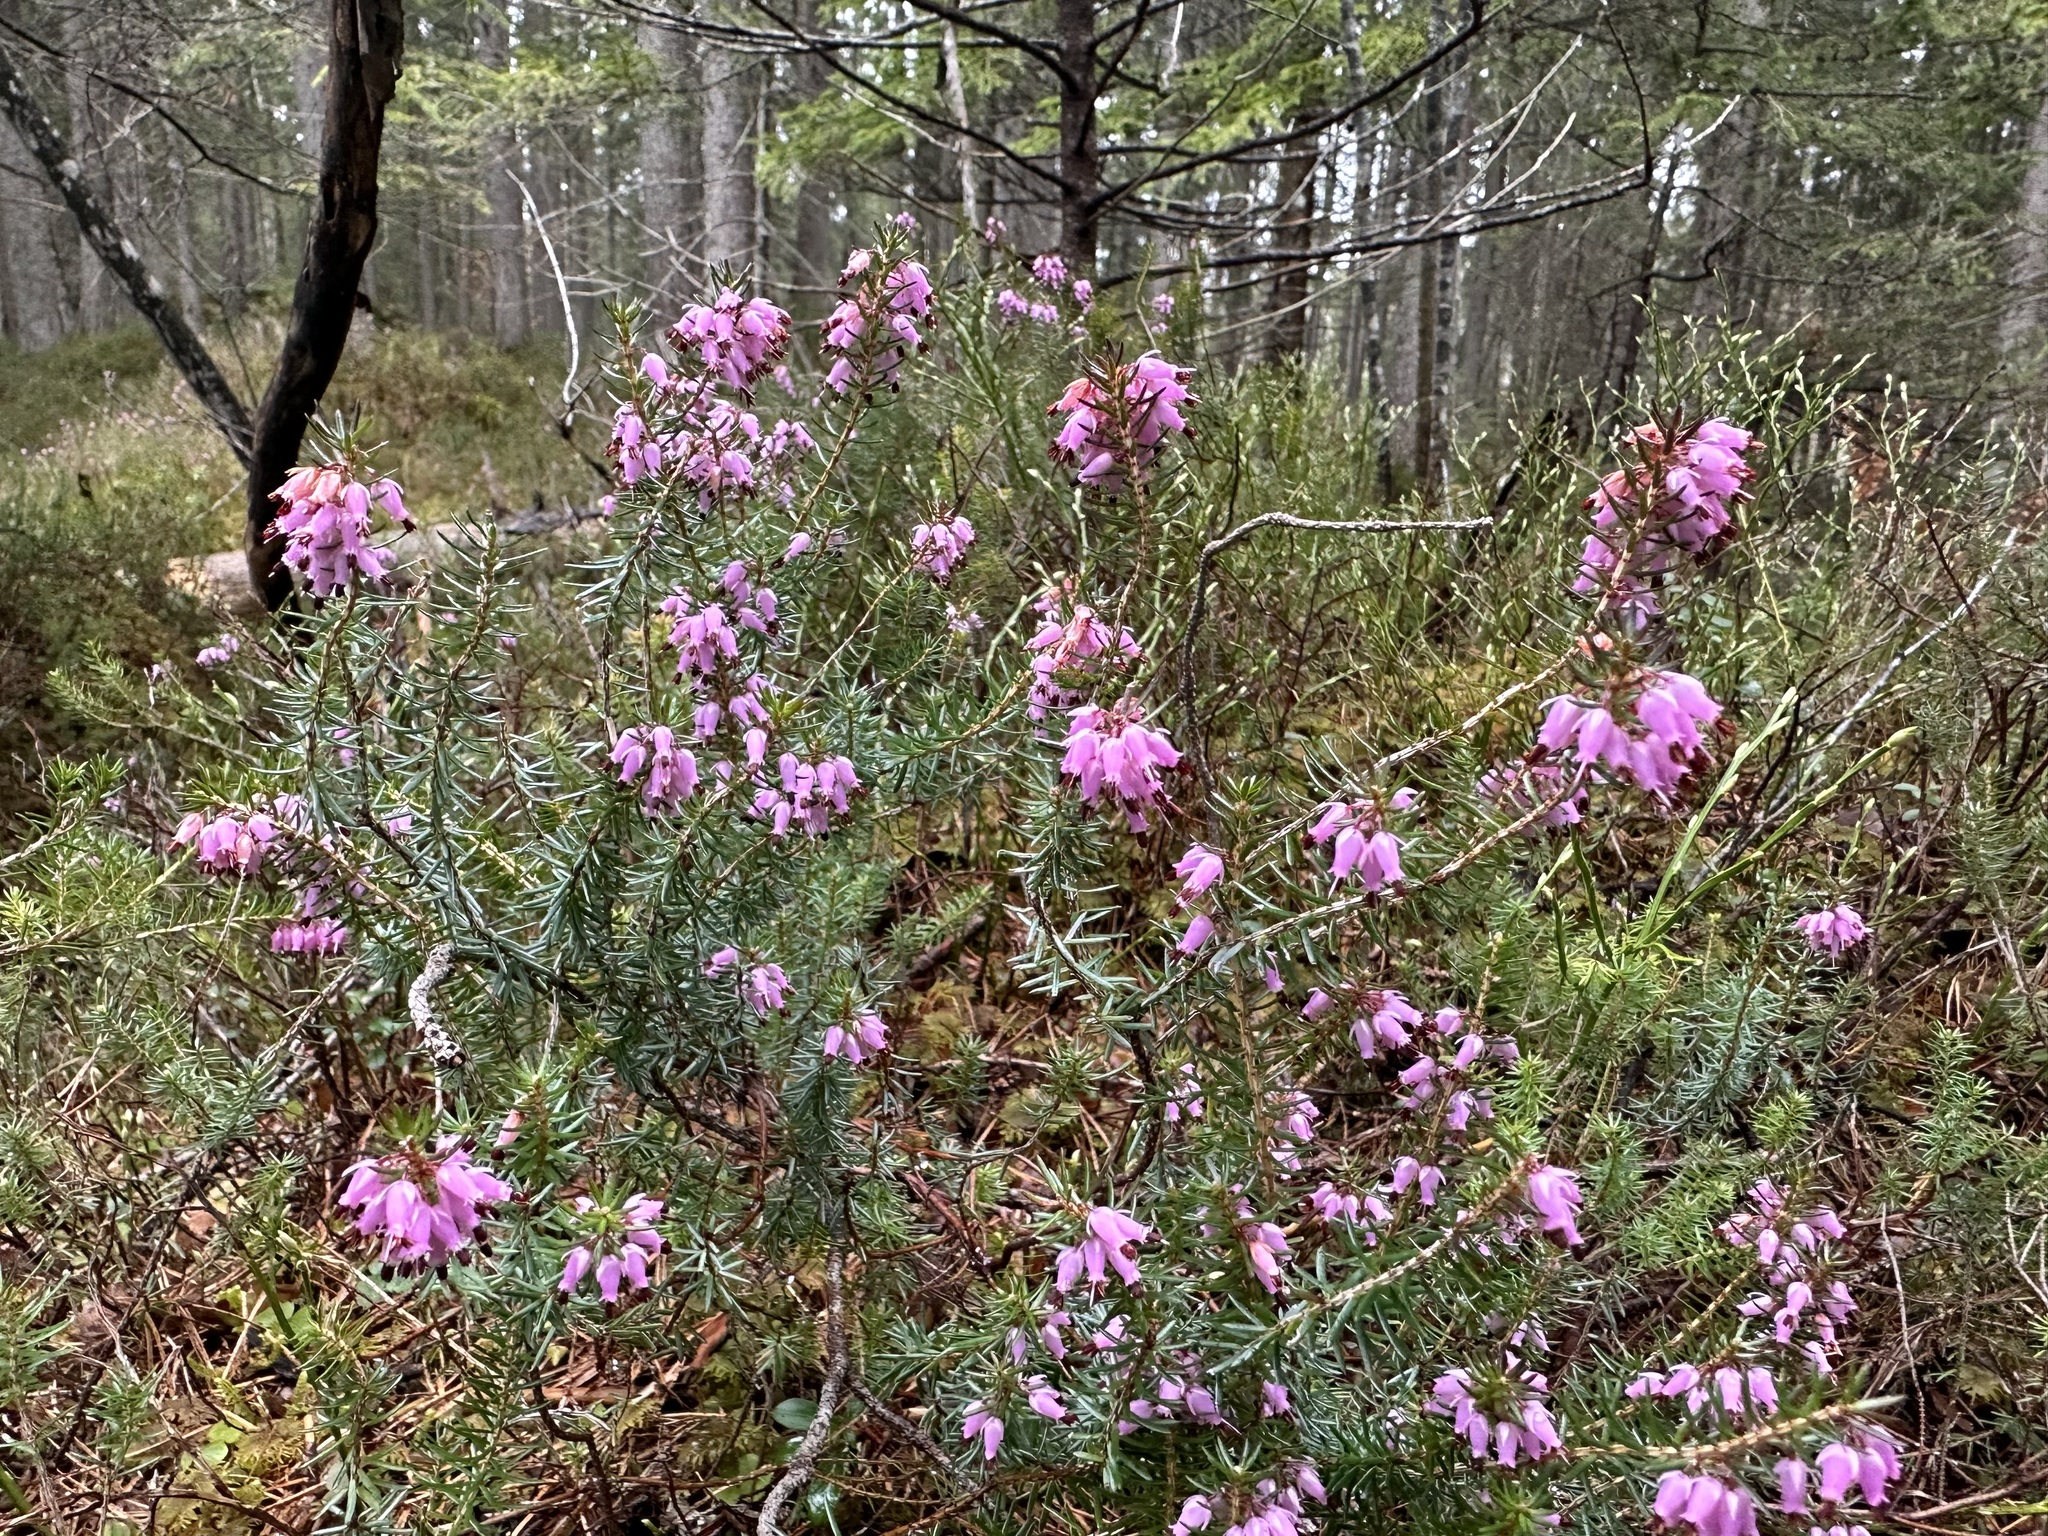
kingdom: Plantae
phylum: Tracheophyta
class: Magnoliopsida
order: Ericales
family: Ericaceae
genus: Erica
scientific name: Erica carnea
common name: Winter heath
